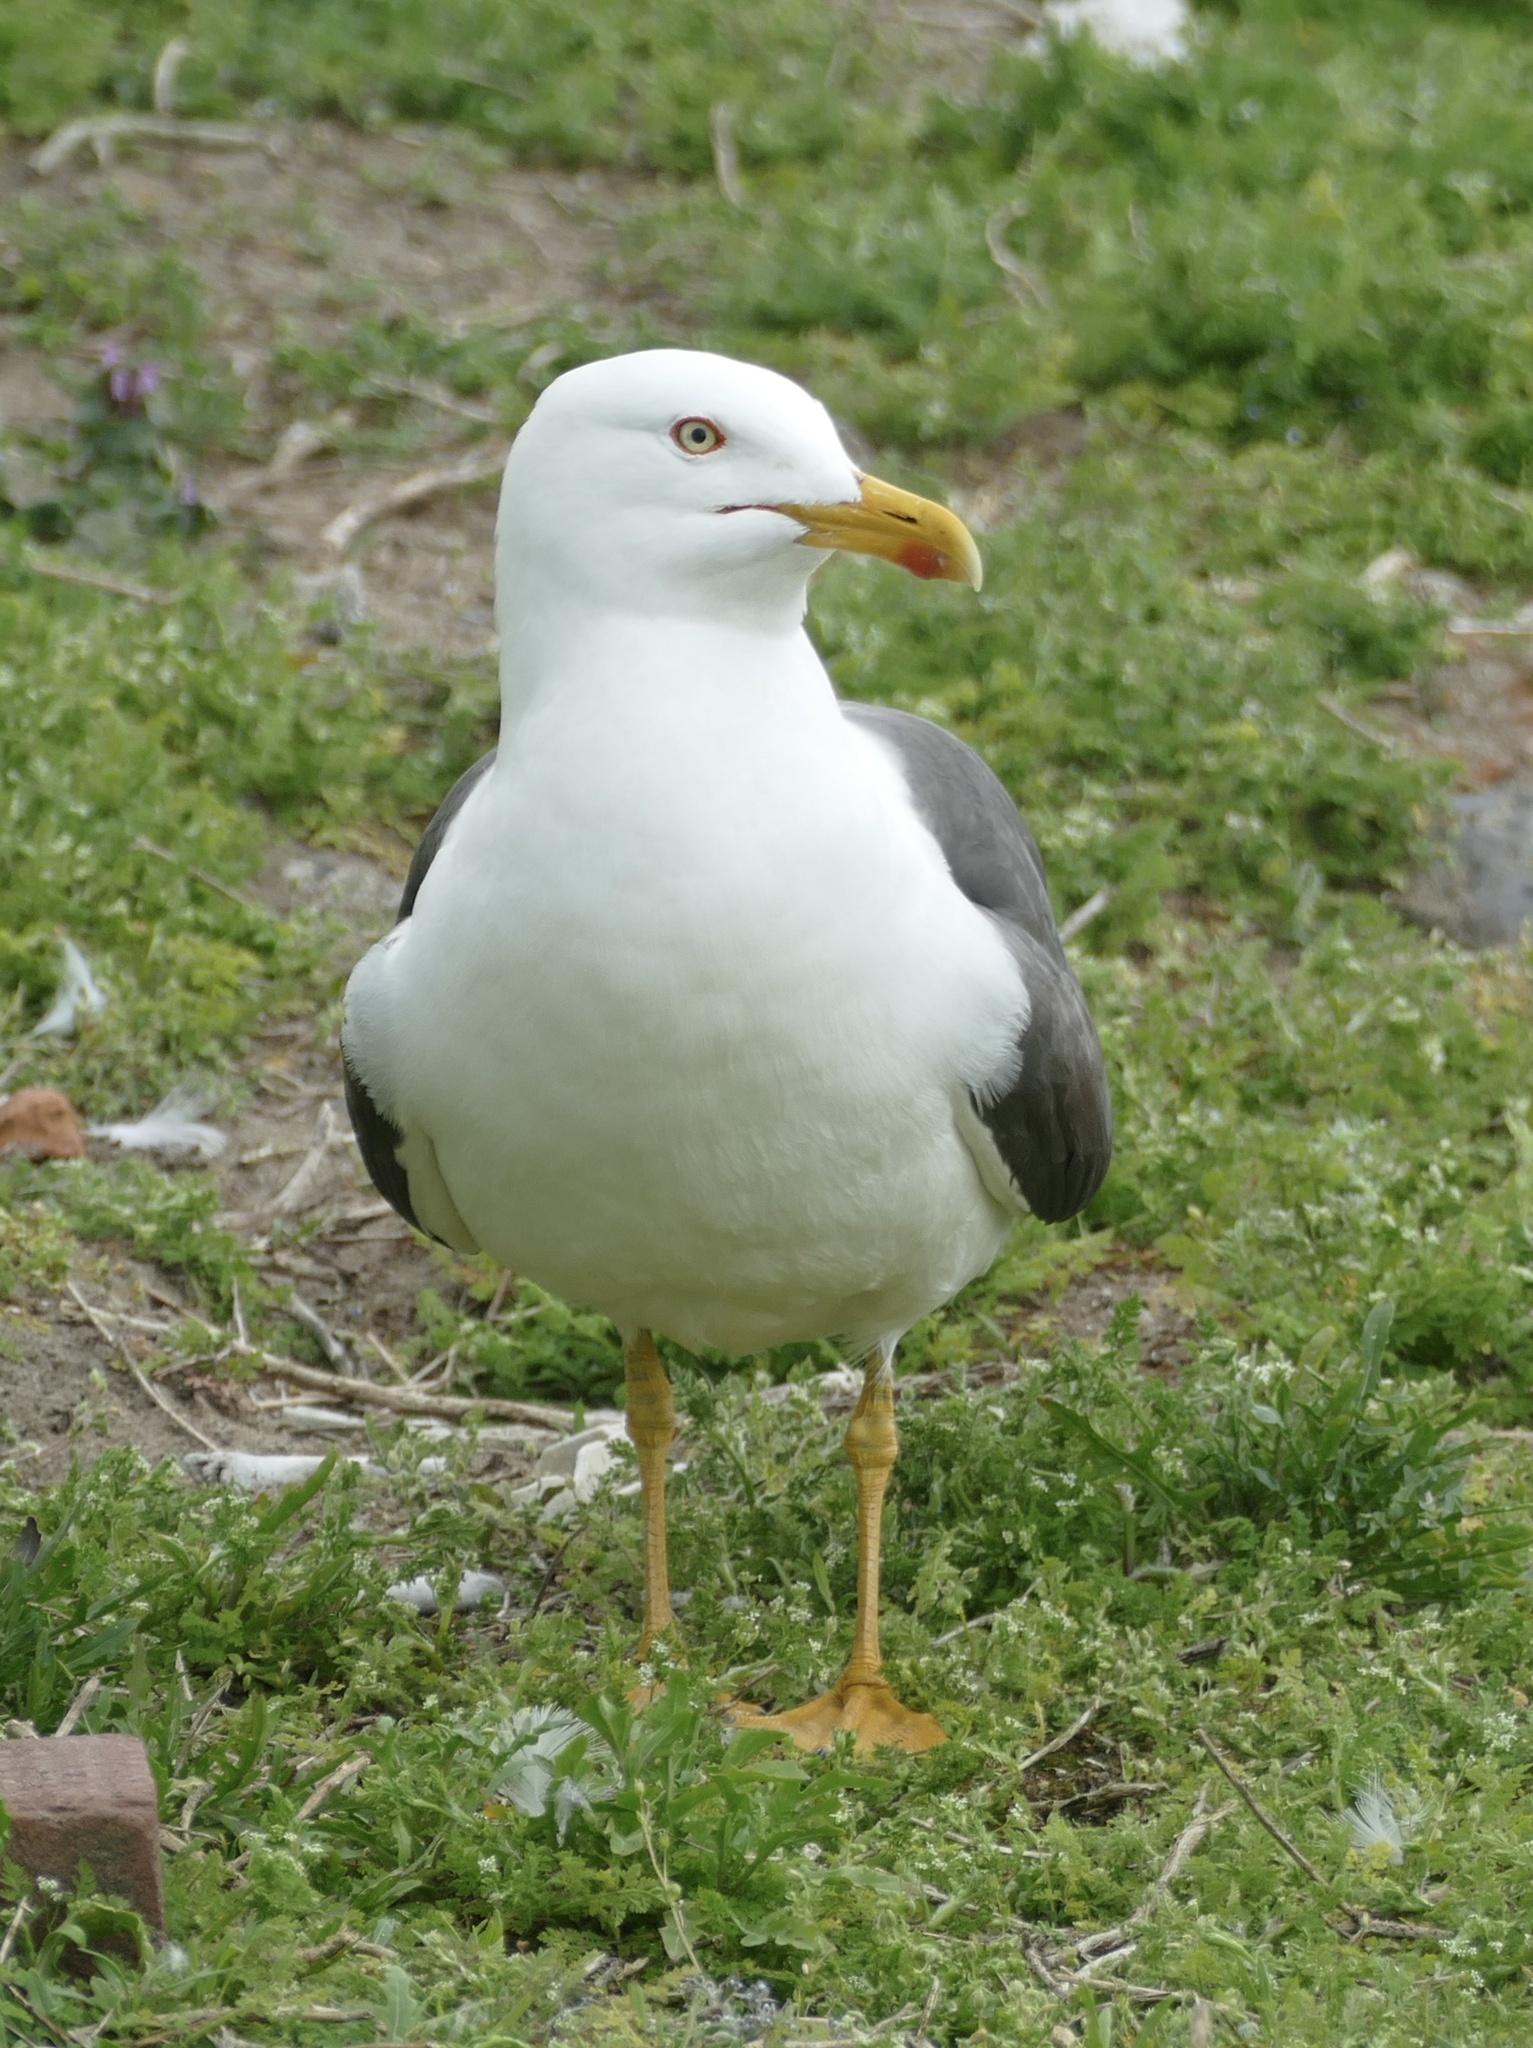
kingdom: Animalia
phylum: Chordata
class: Aves
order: Charadriiformes
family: Laridae
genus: Larus
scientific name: Larus fuscus
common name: Lesser black-backed gull
